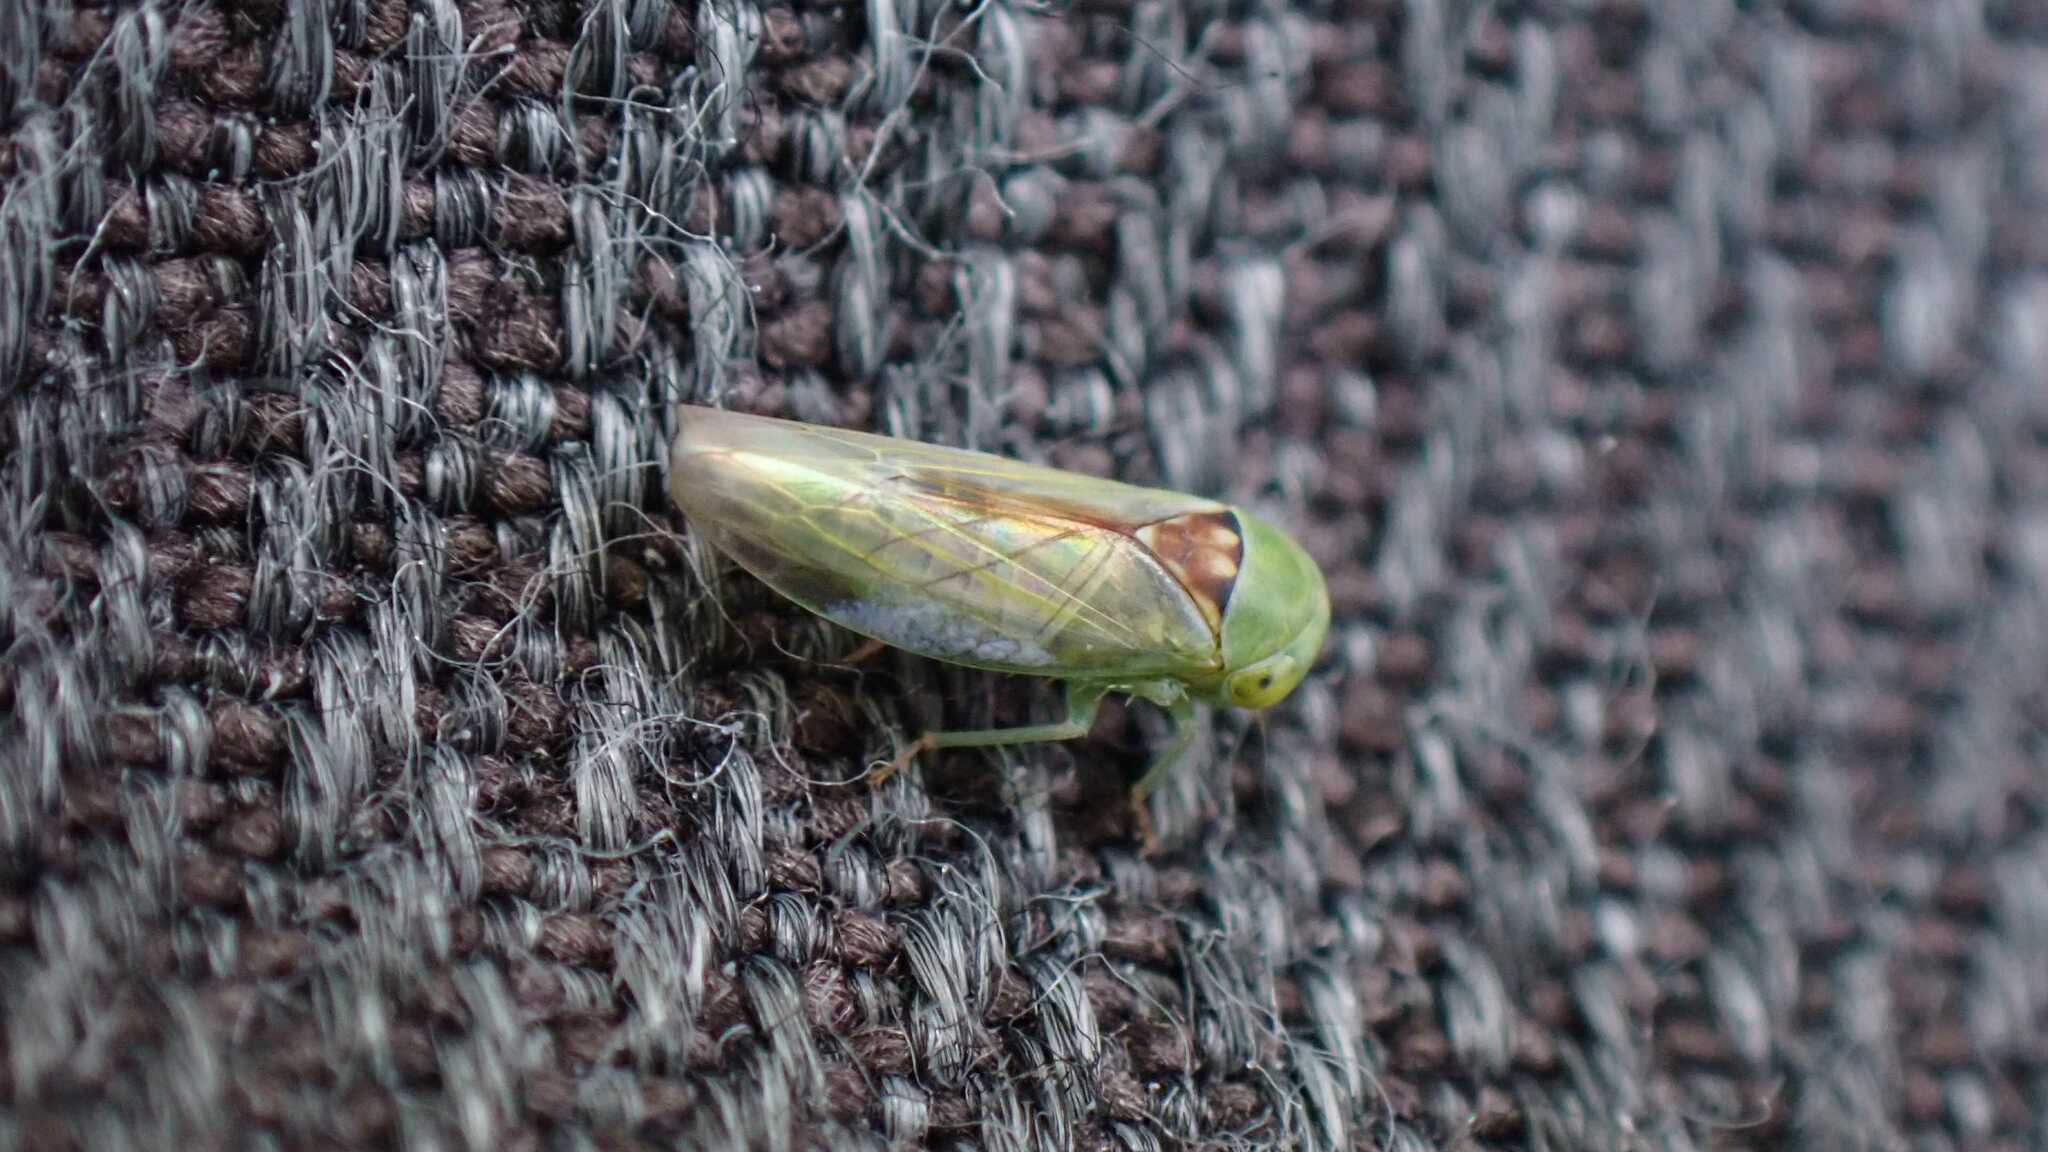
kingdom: Animalia
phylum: Arthropoda
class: Insecta
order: Hemiptera
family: Cicadellidae
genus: Viridicerus
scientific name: Viridicerus ustulatus
